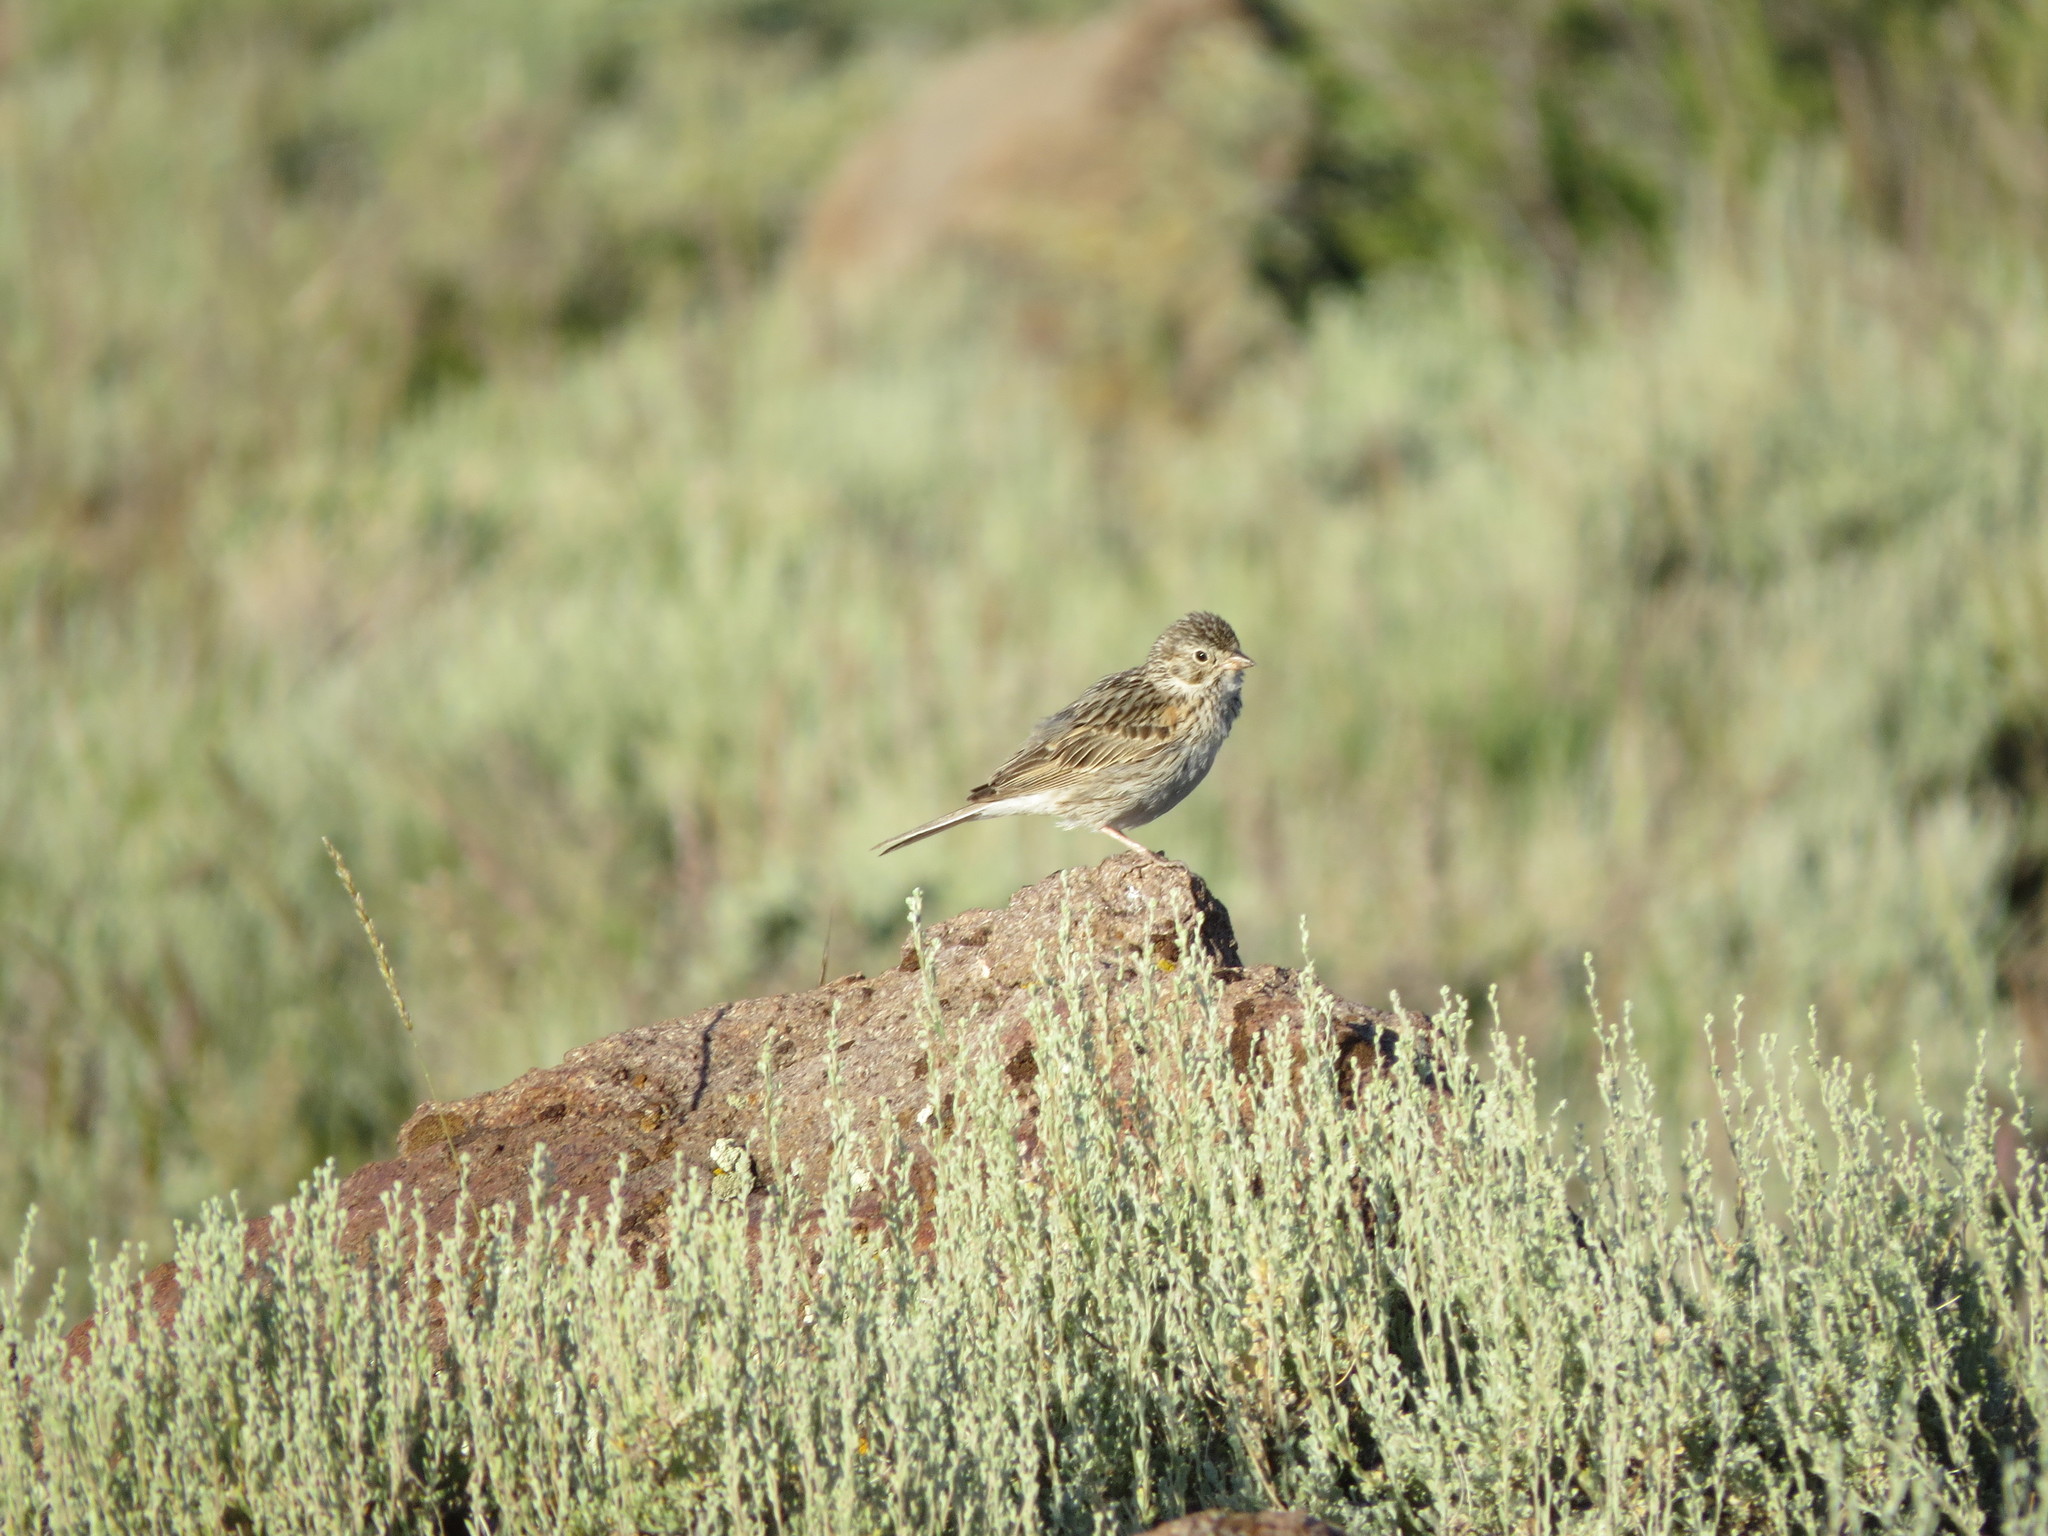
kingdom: Animalia
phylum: Chordata
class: Aves
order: Passeriformes
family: Passerellidae
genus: Pooecetes
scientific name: Pooecetes gramineus
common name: Vesper sparrow
